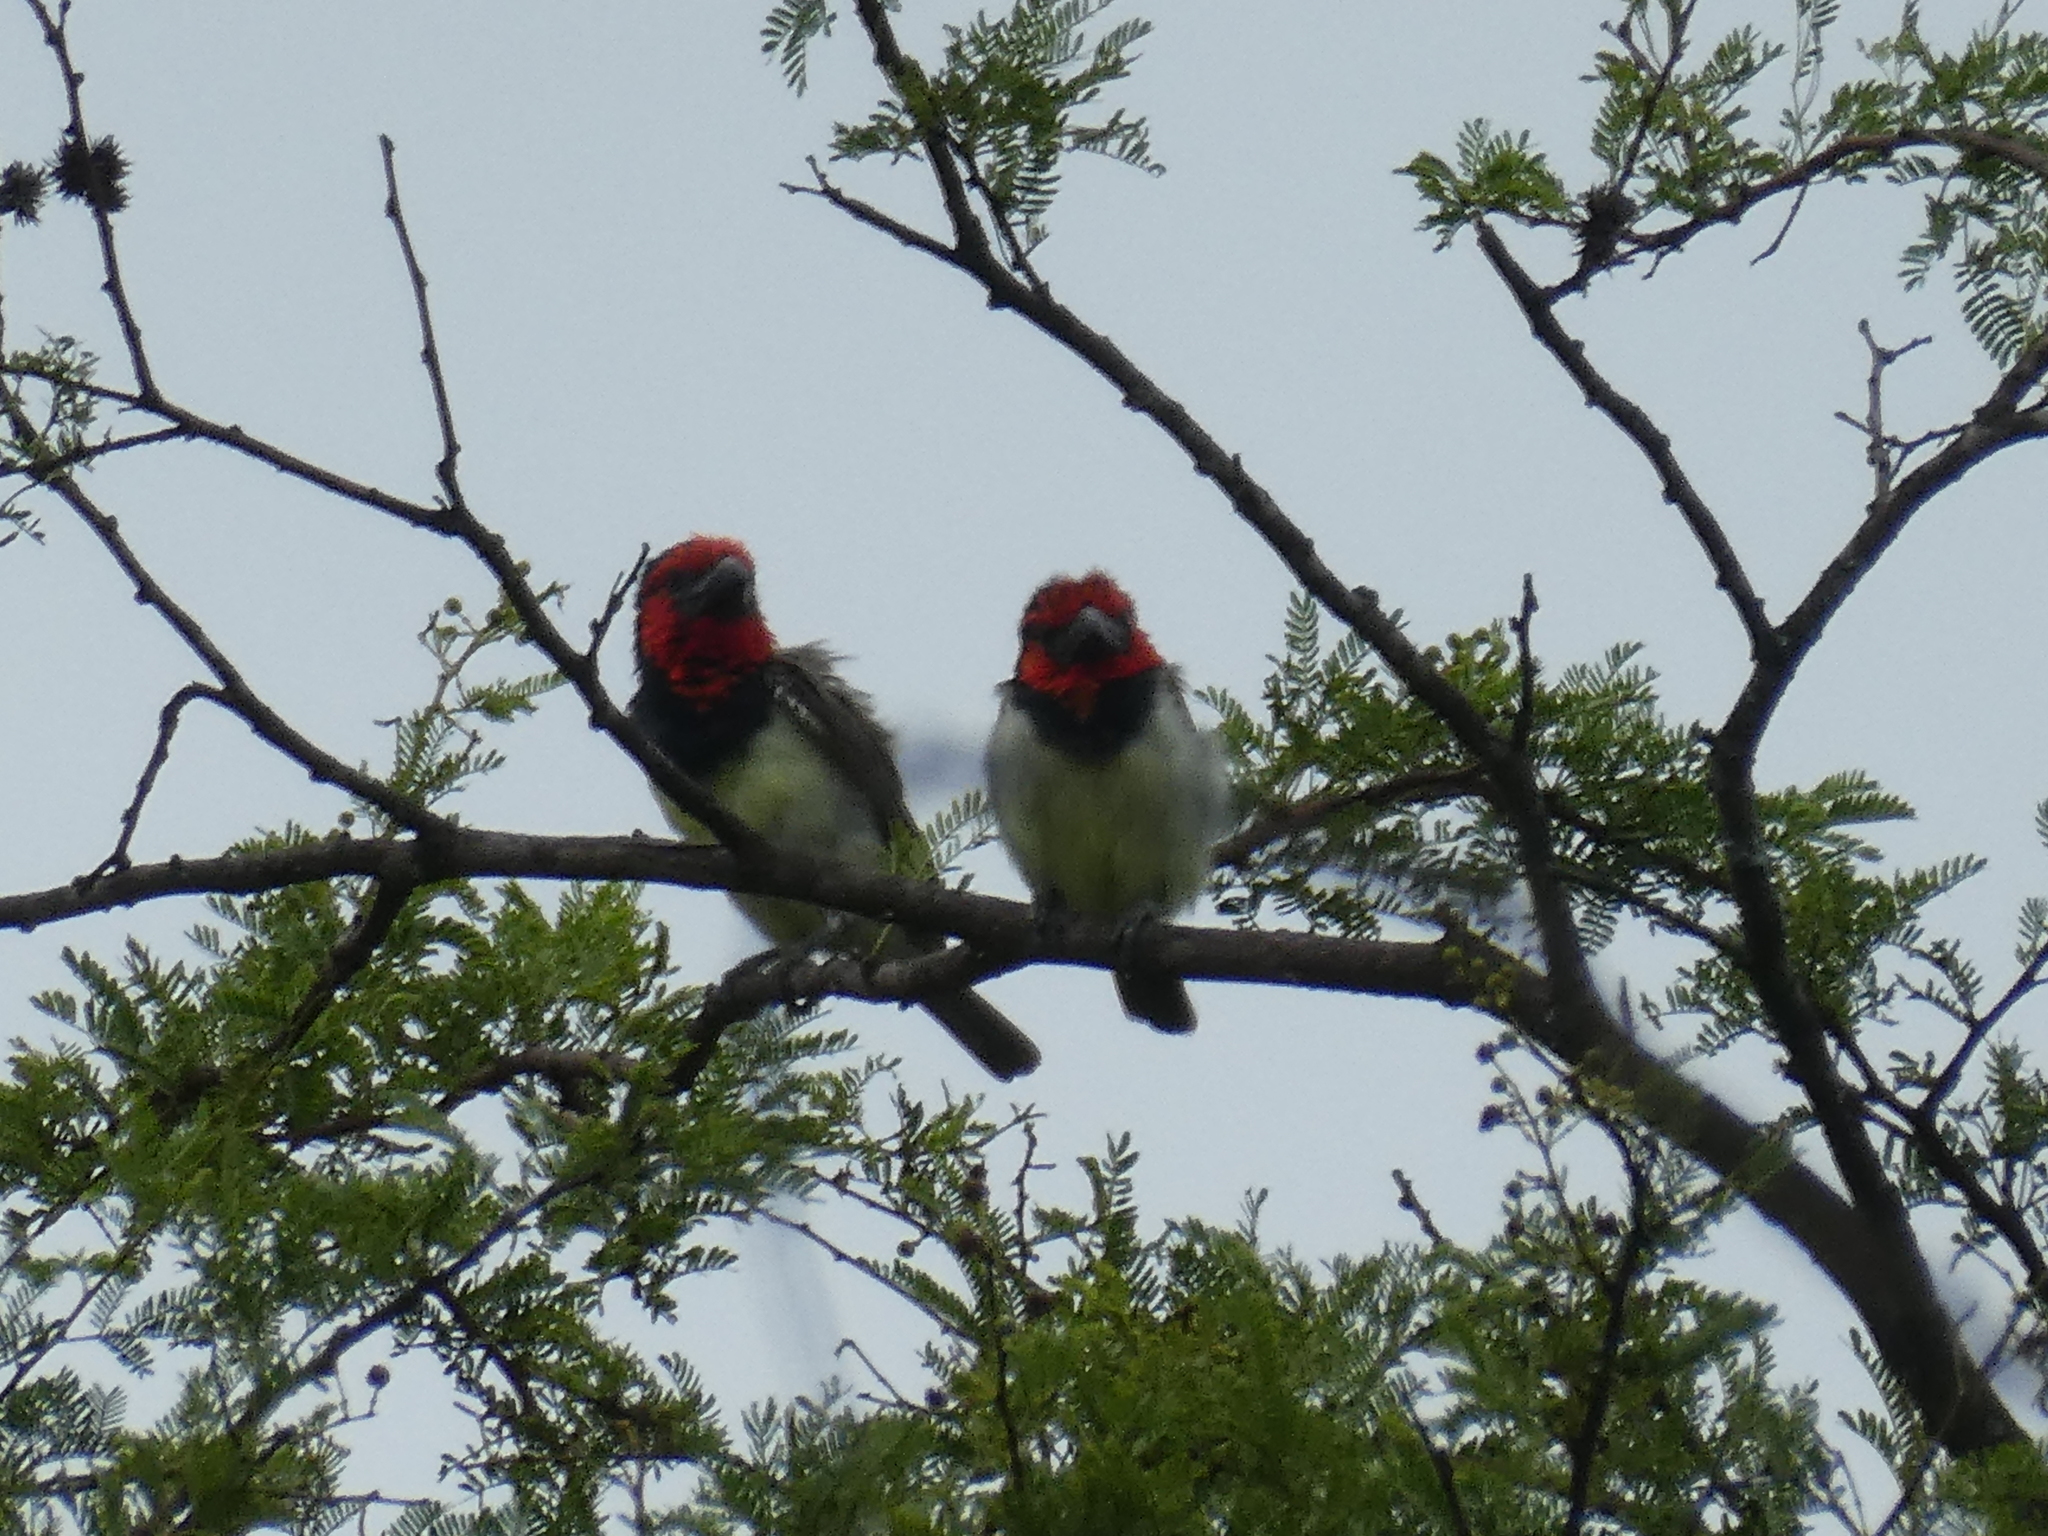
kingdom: Animalia
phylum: Chordata
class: Aves
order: Piciformes
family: Lybiidae
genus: Lybius
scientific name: Lybius torquatus
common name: Black-collared barbet
